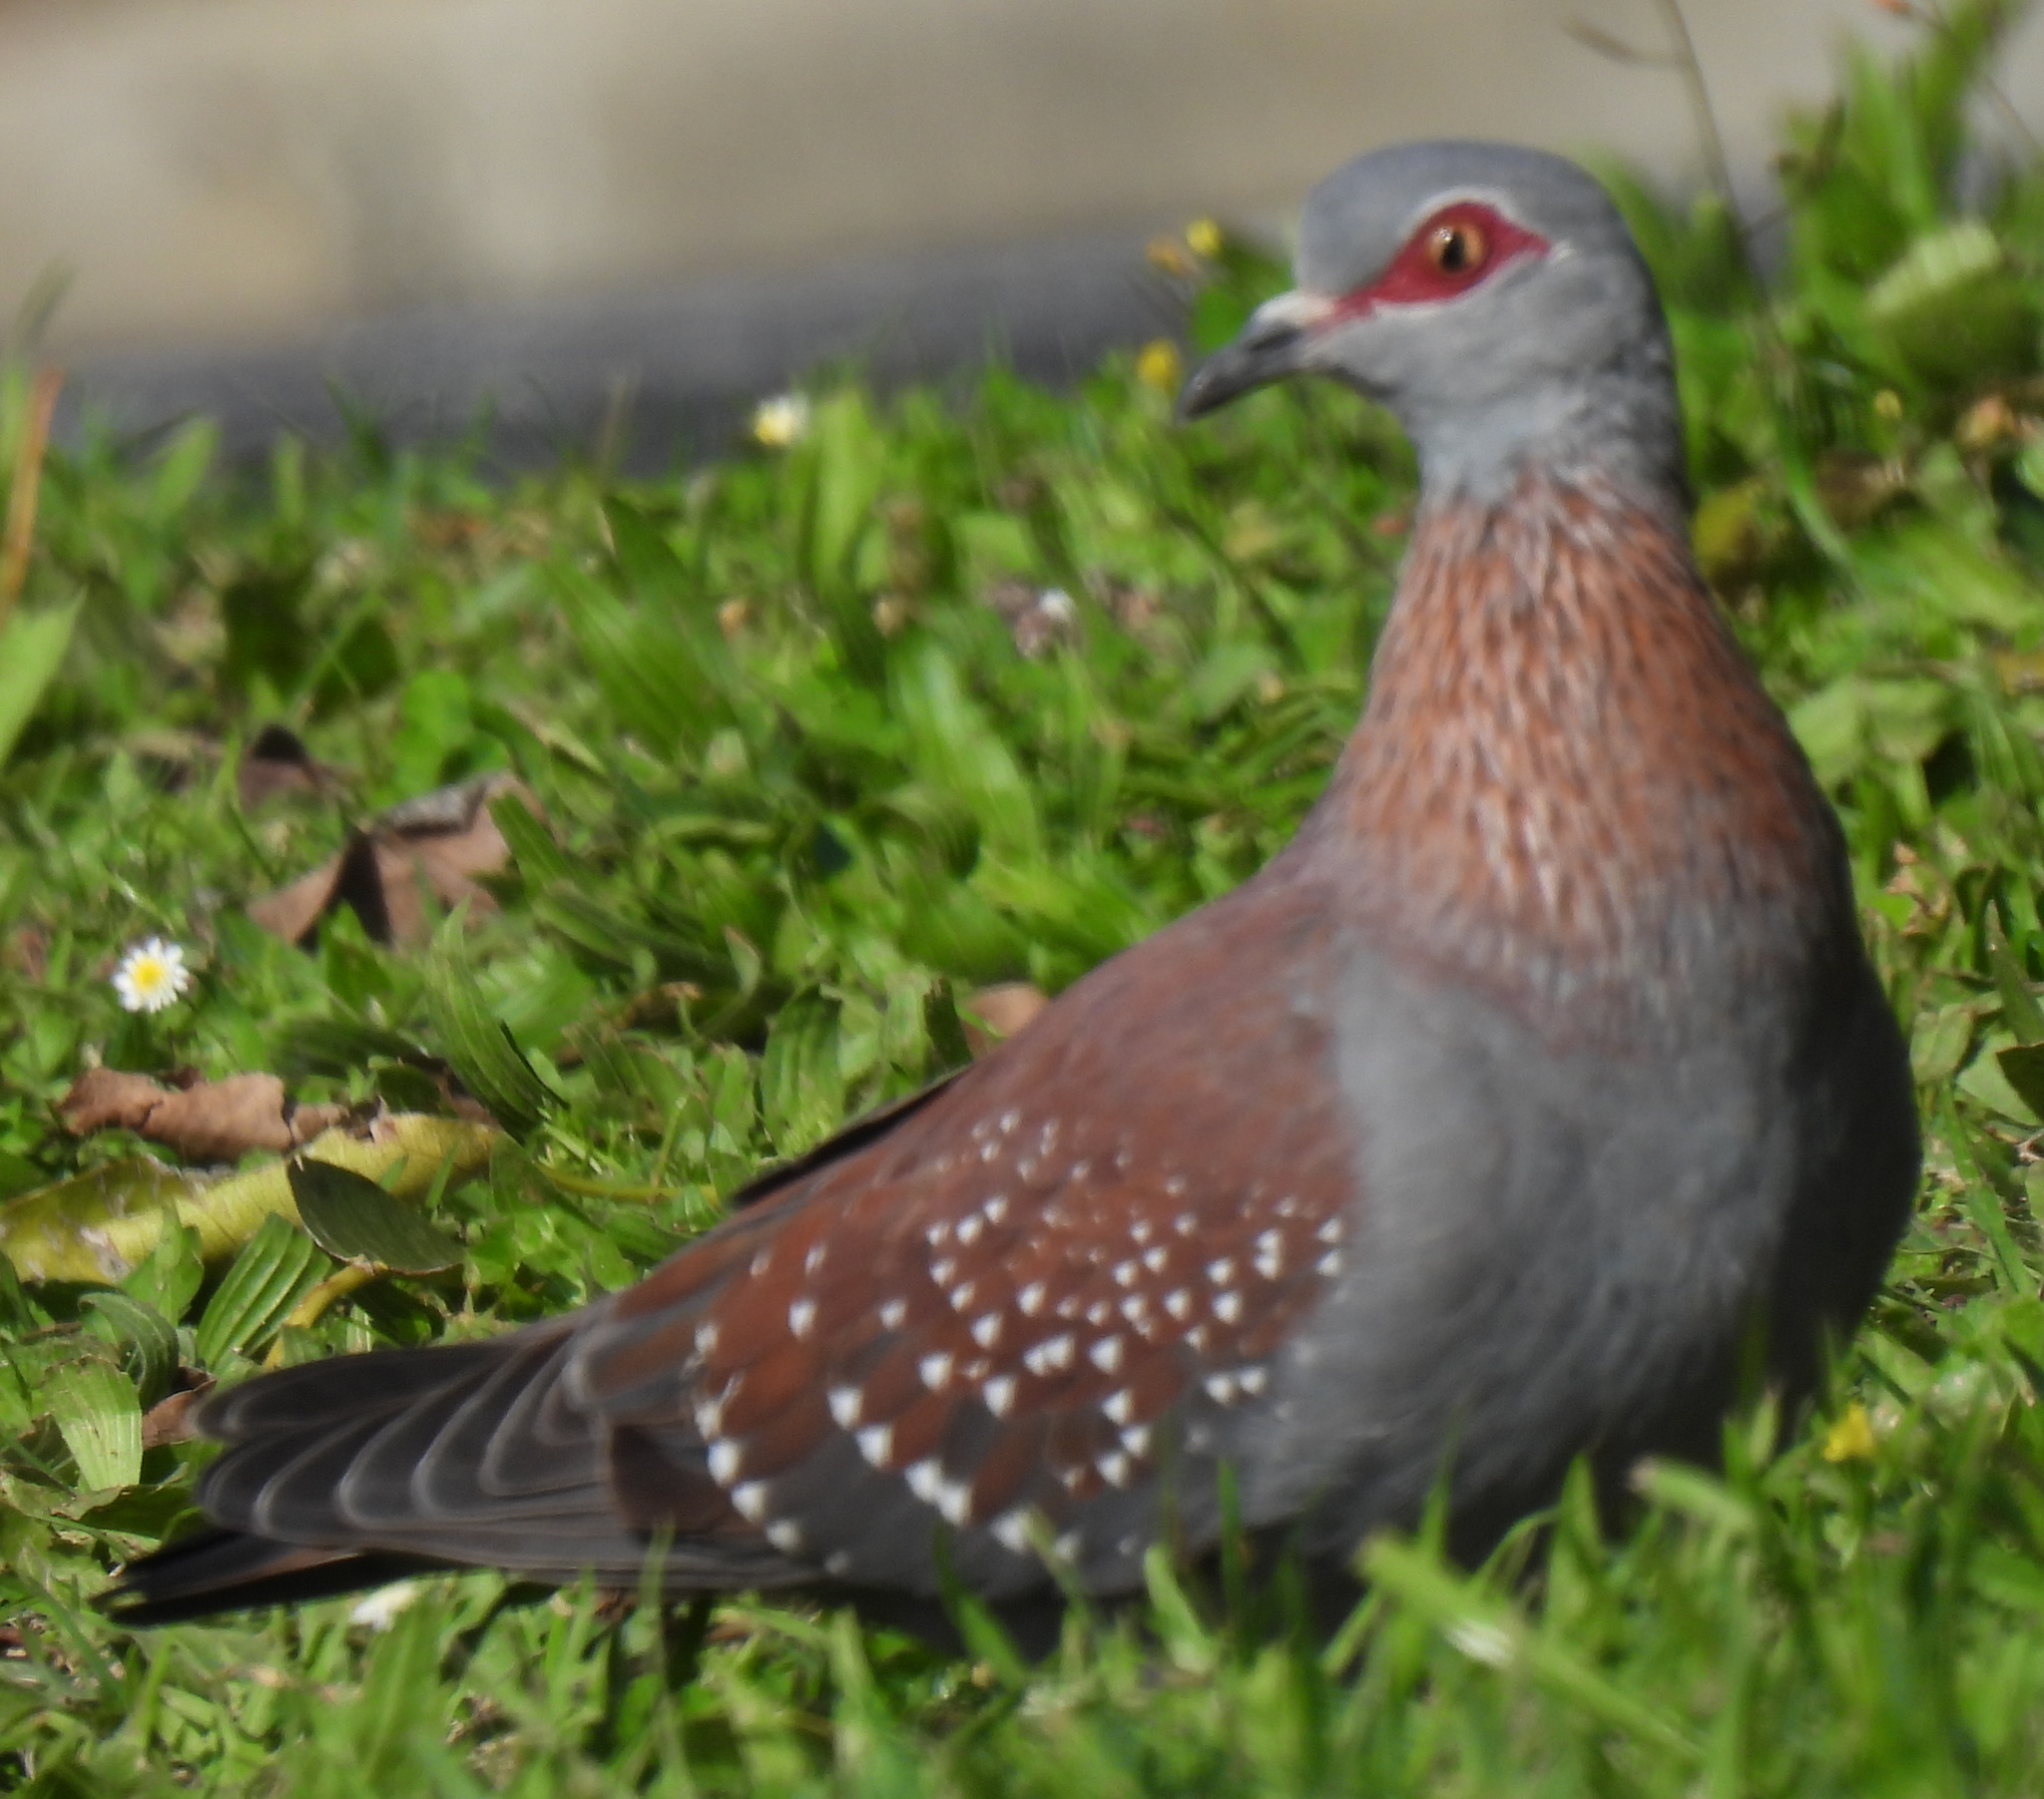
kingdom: Animalia
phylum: Chordata
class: Aves
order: Columbiformes
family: Columbidae
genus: Columba
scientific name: Columba guinea
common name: Speckled pigeon
